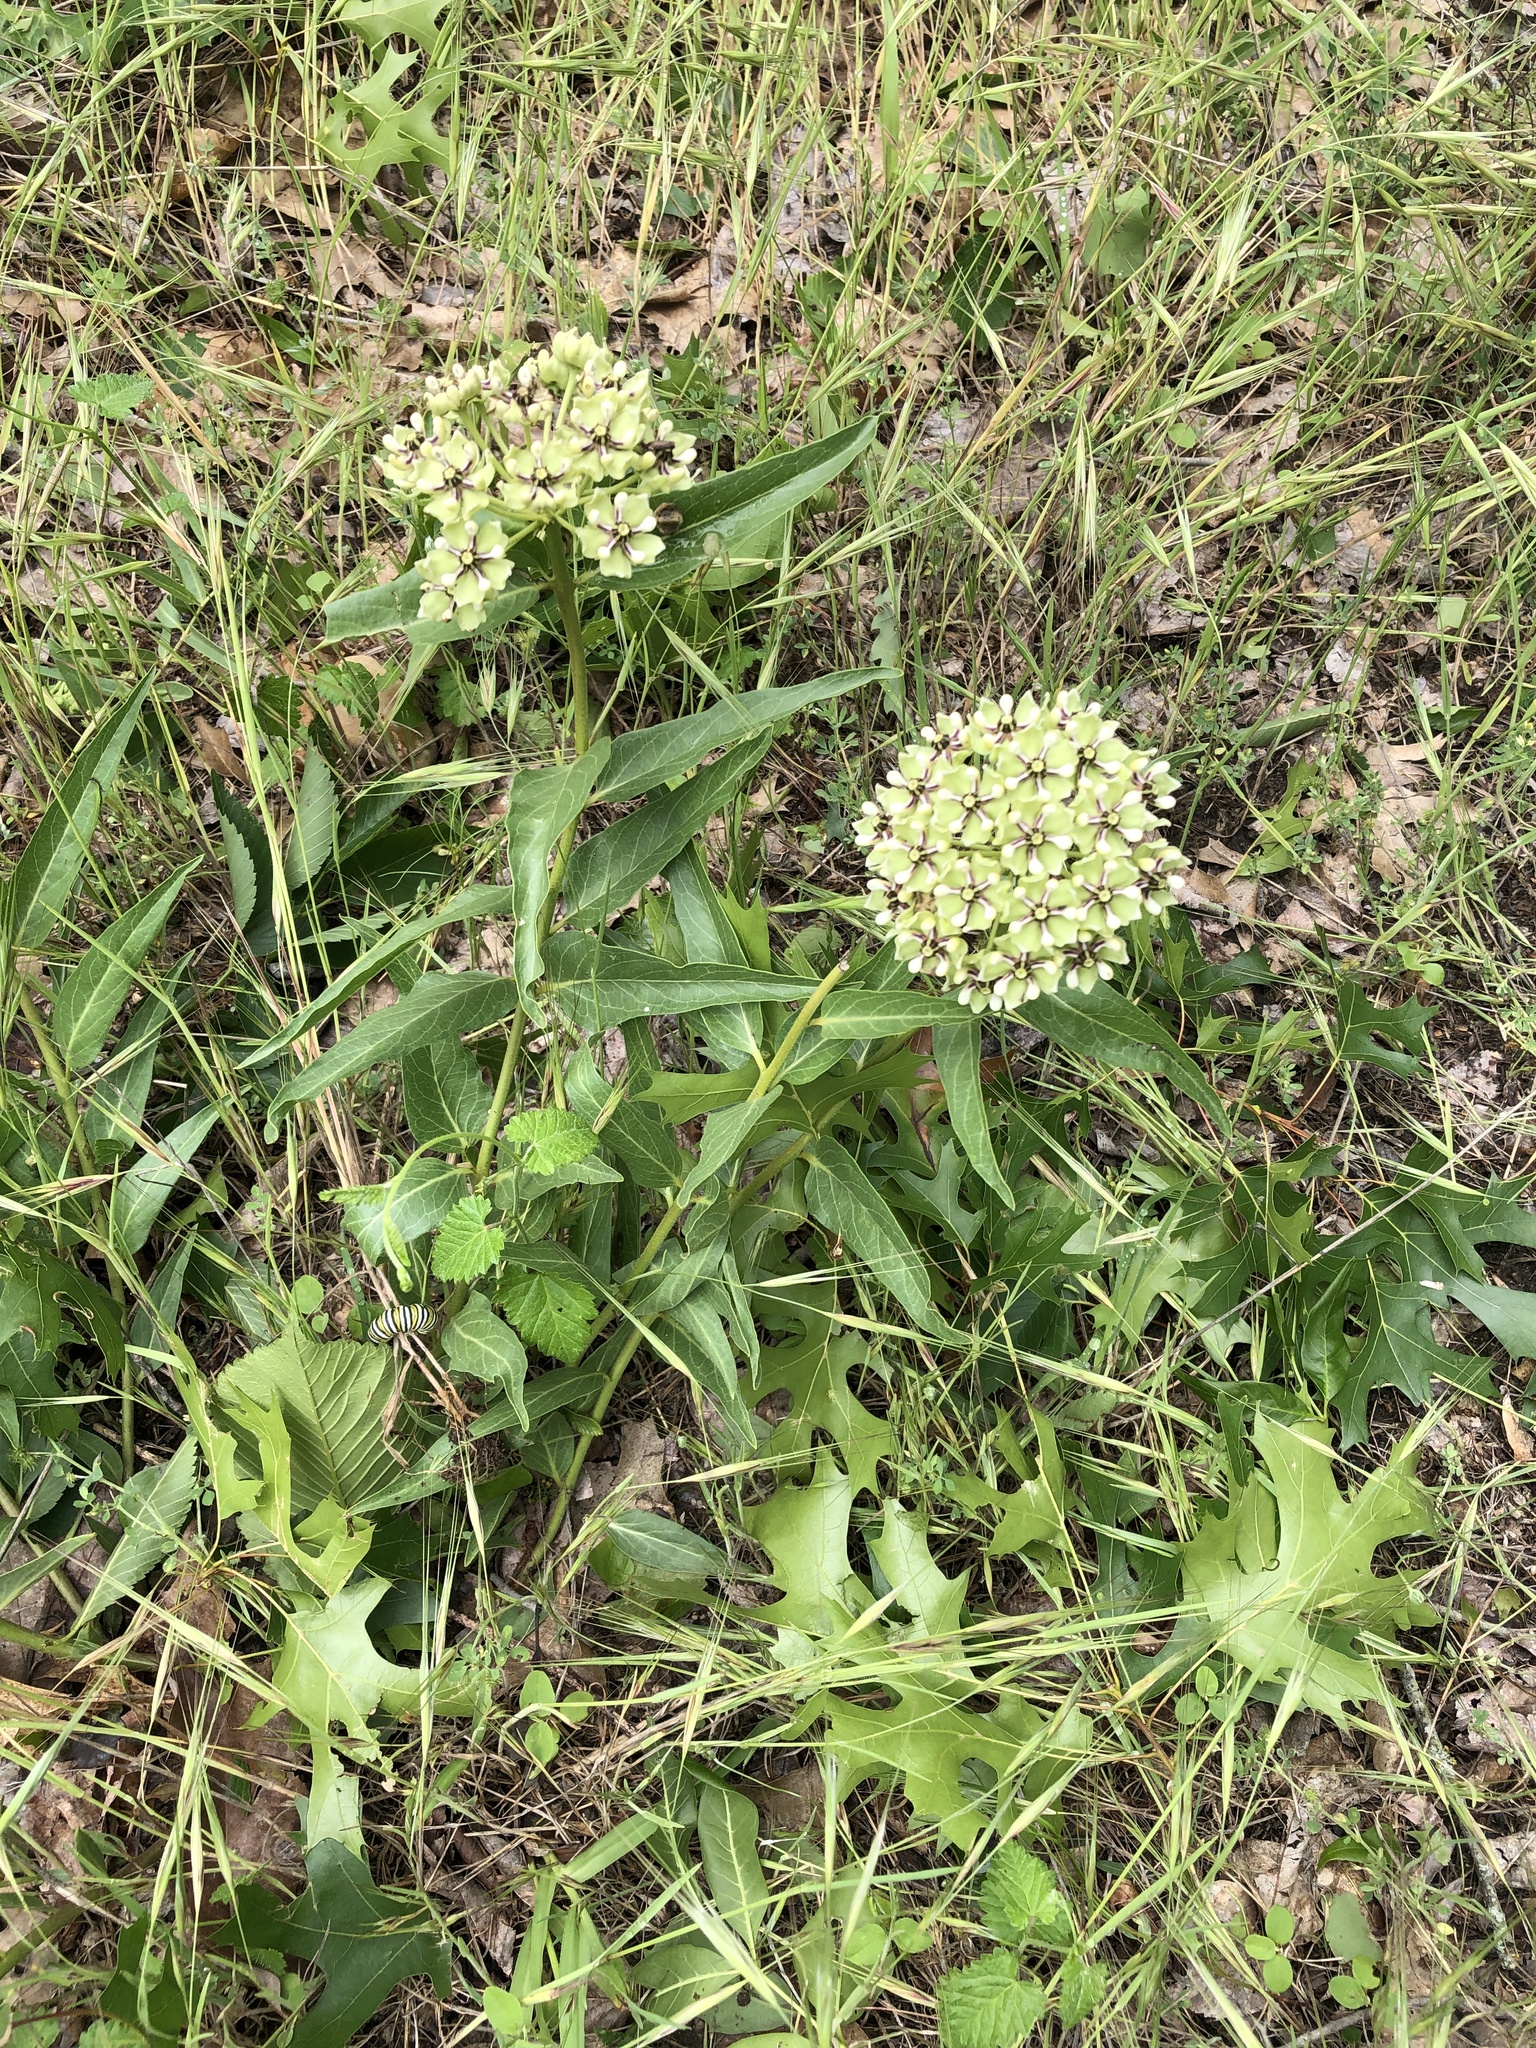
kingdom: Plantae
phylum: Tracheophyta
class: Magnoliopsida
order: Gentianales
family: Apocynaceae
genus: Asclepias
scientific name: Asclepias asperula
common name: Antelope horns
